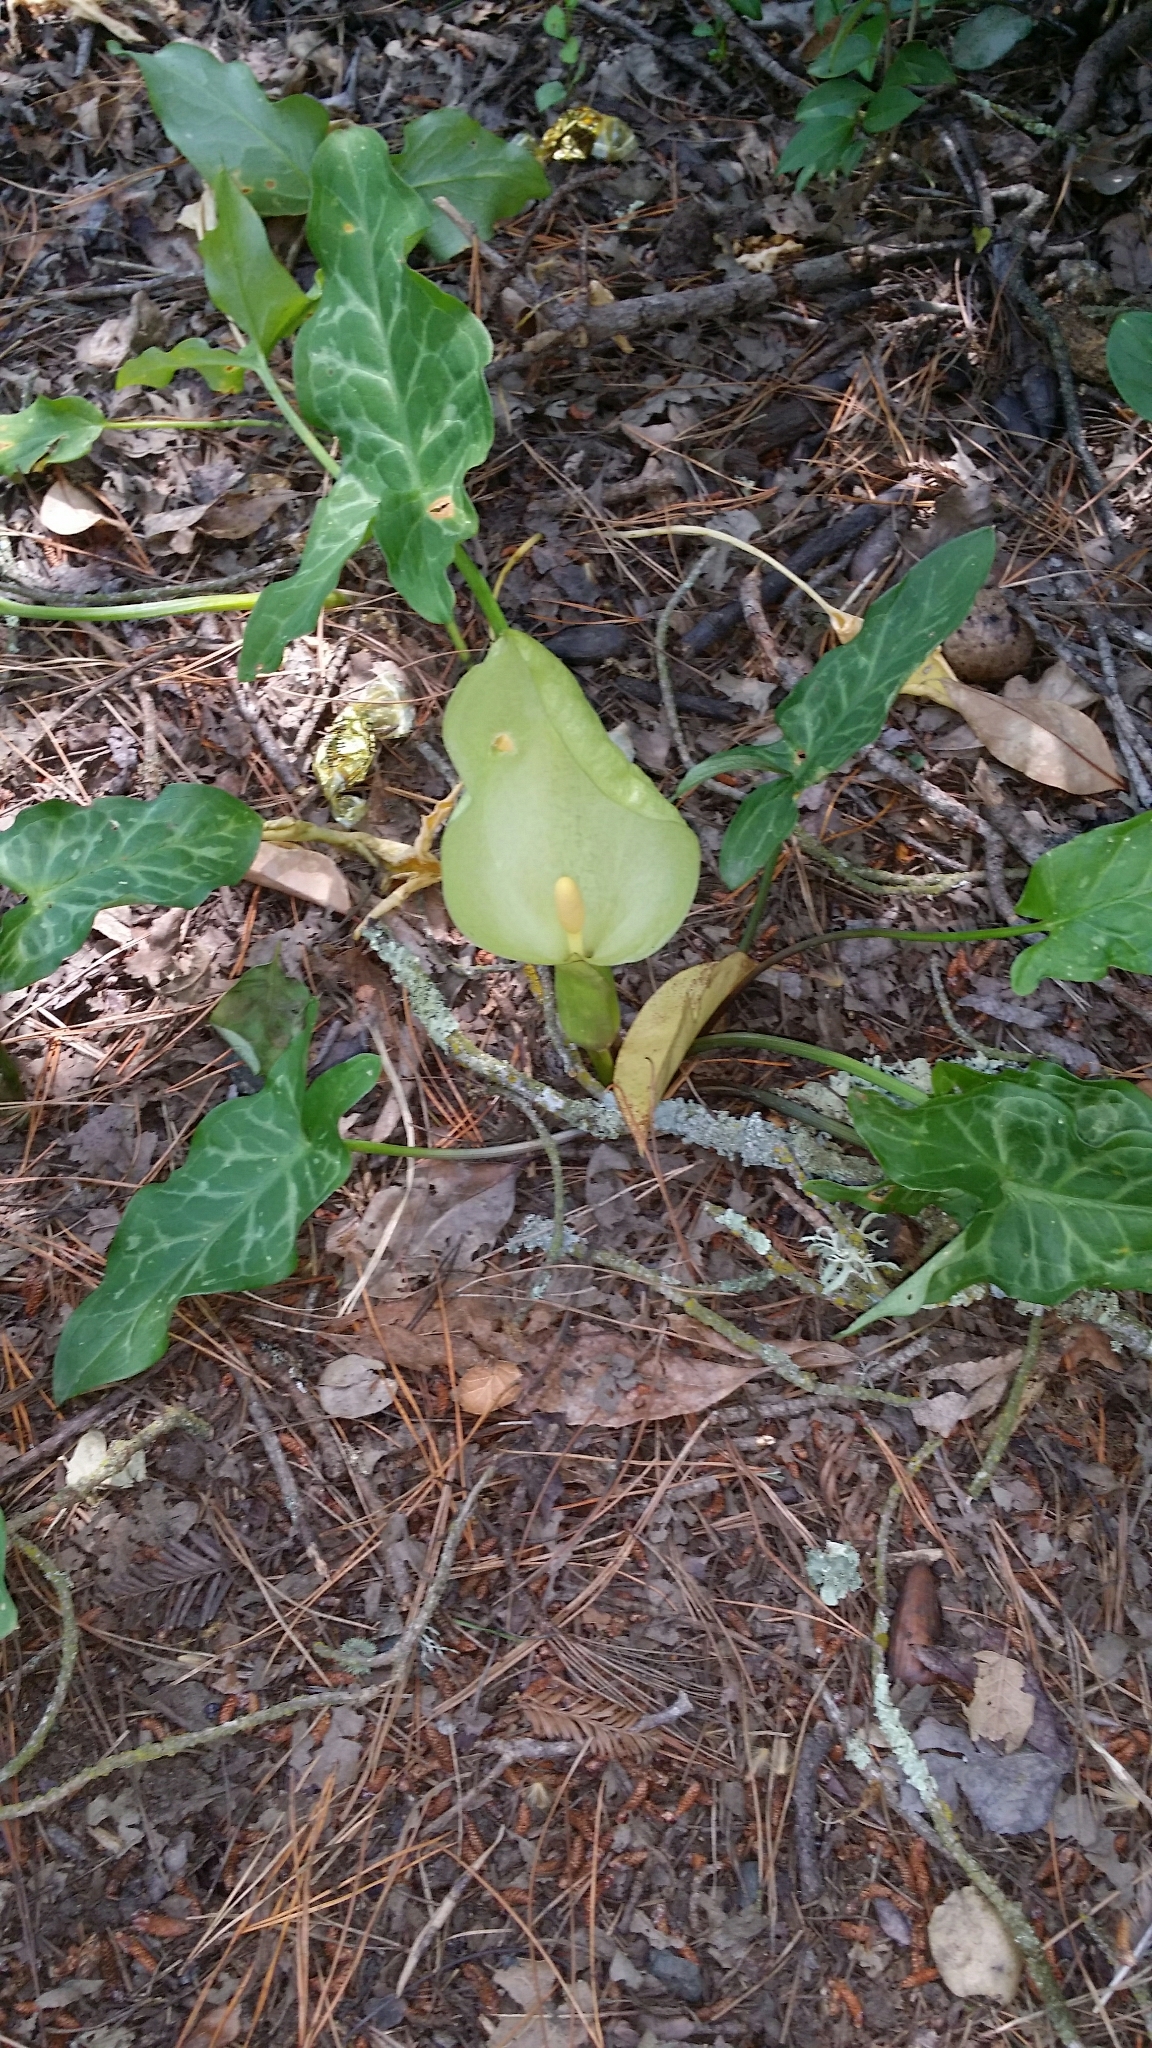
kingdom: Plantae
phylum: Tracheophyta
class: Liliopsida
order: Alismatales
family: Araceae
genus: Arum
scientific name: Arum italicum
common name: Italian lords-and-ladies
